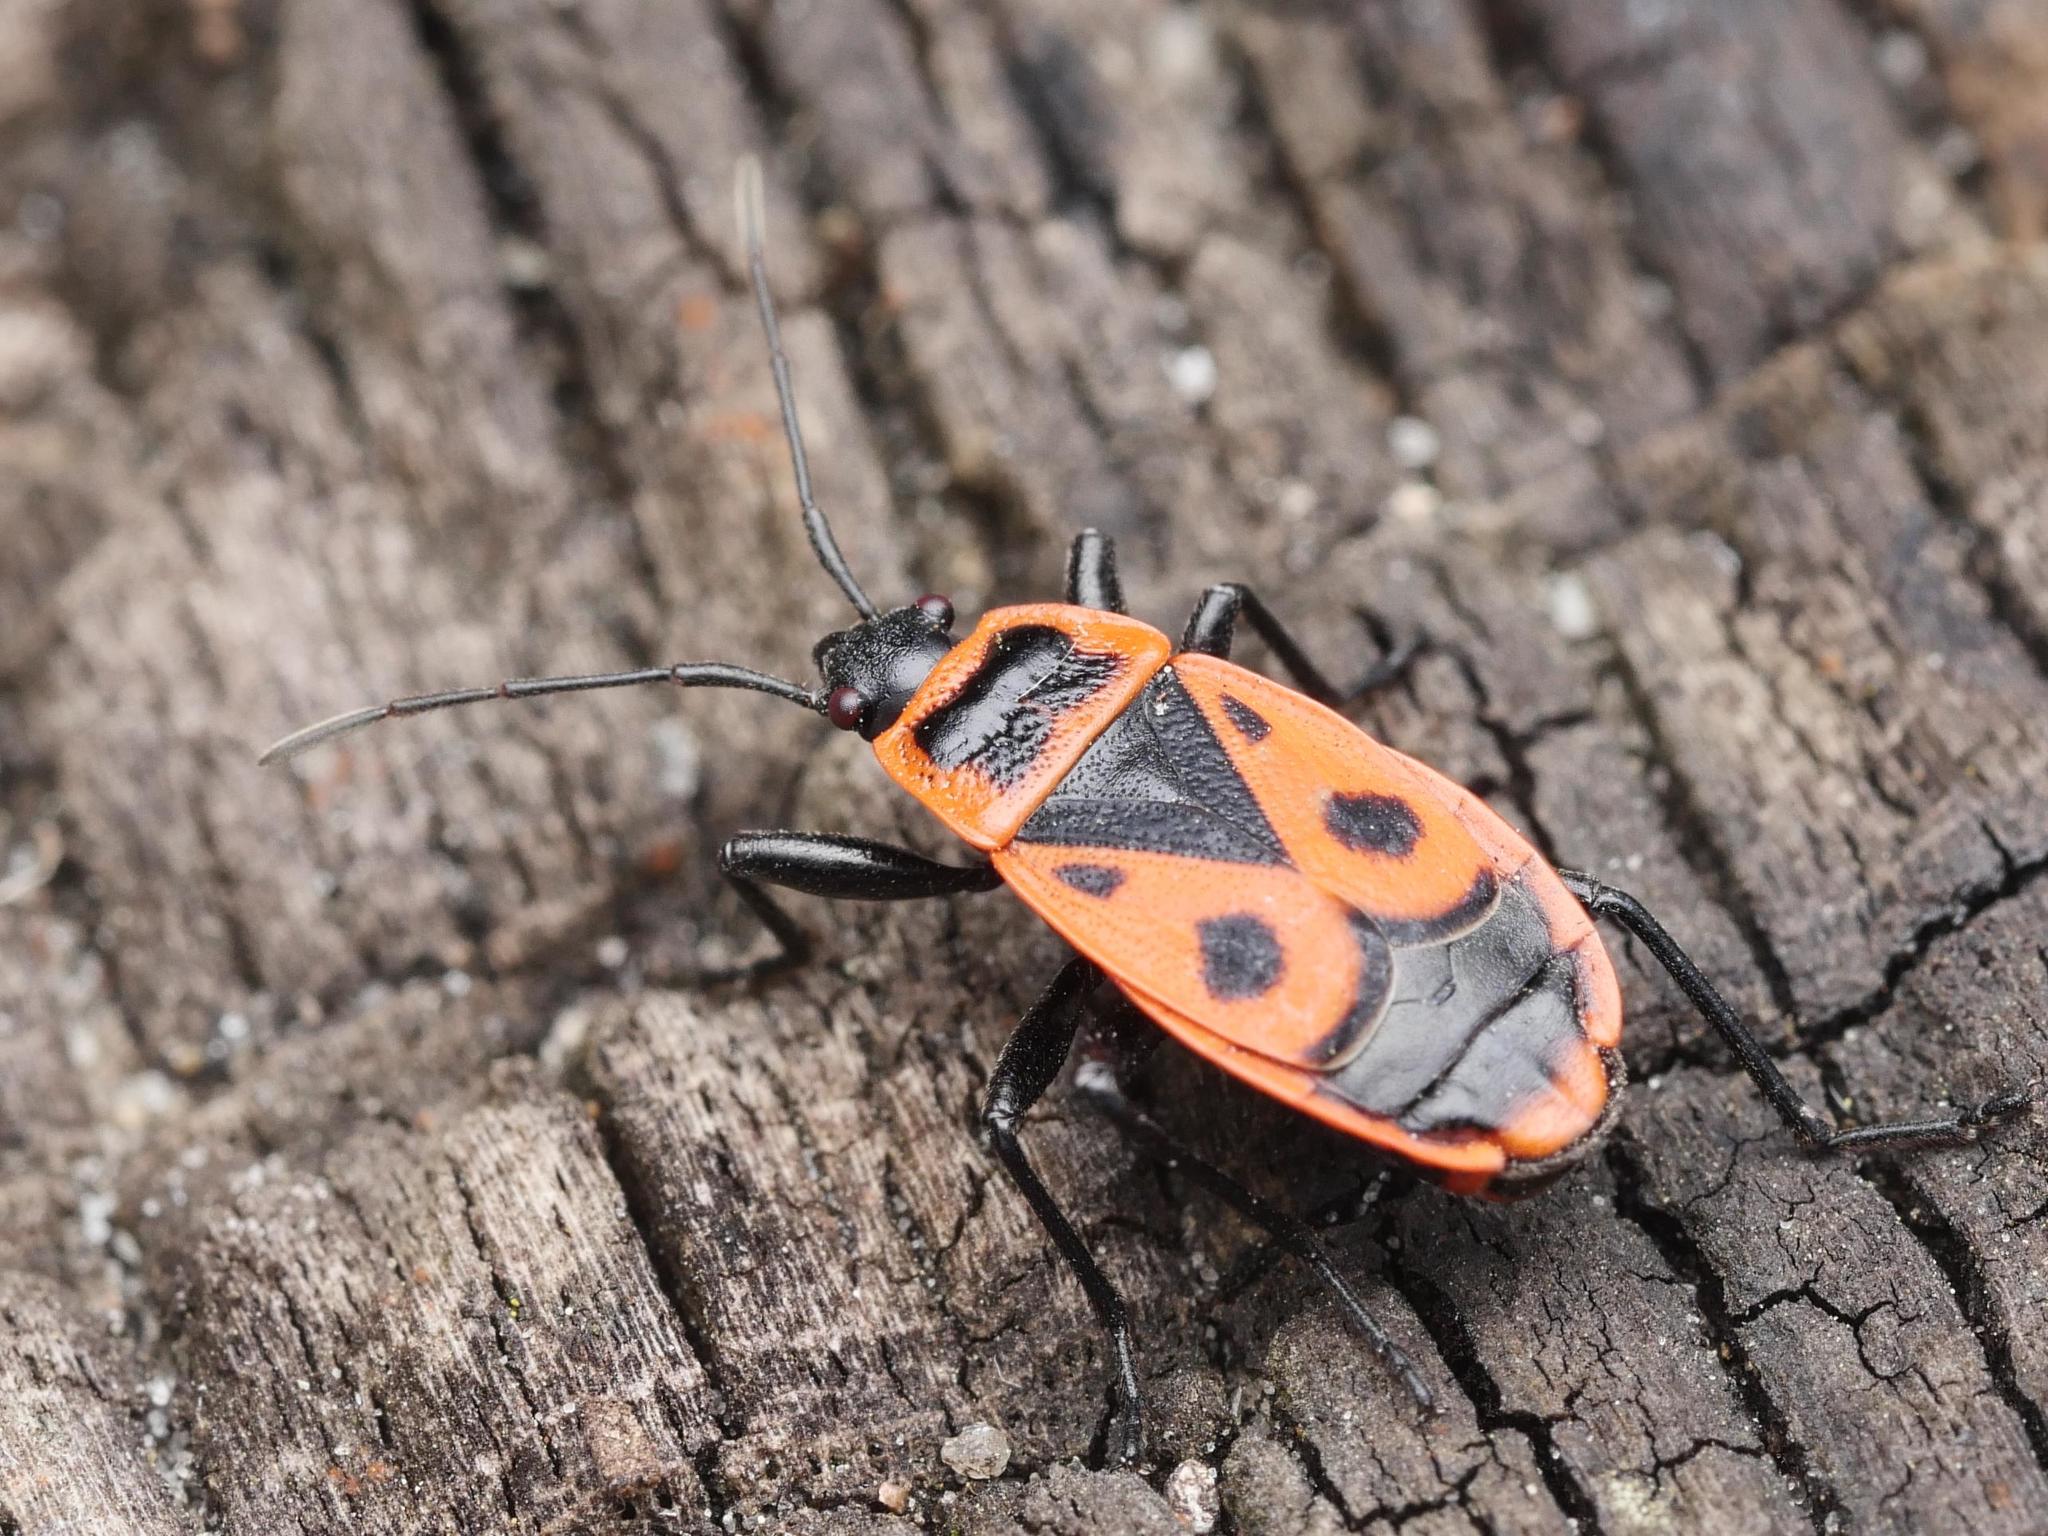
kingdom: Animalia
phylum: Arthropoda
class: Insecta
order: Hemiptera
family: Pyrrhocoridae
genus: Pyrrhocoris
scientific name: Pyrrhocoris apterus
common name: Firebug
